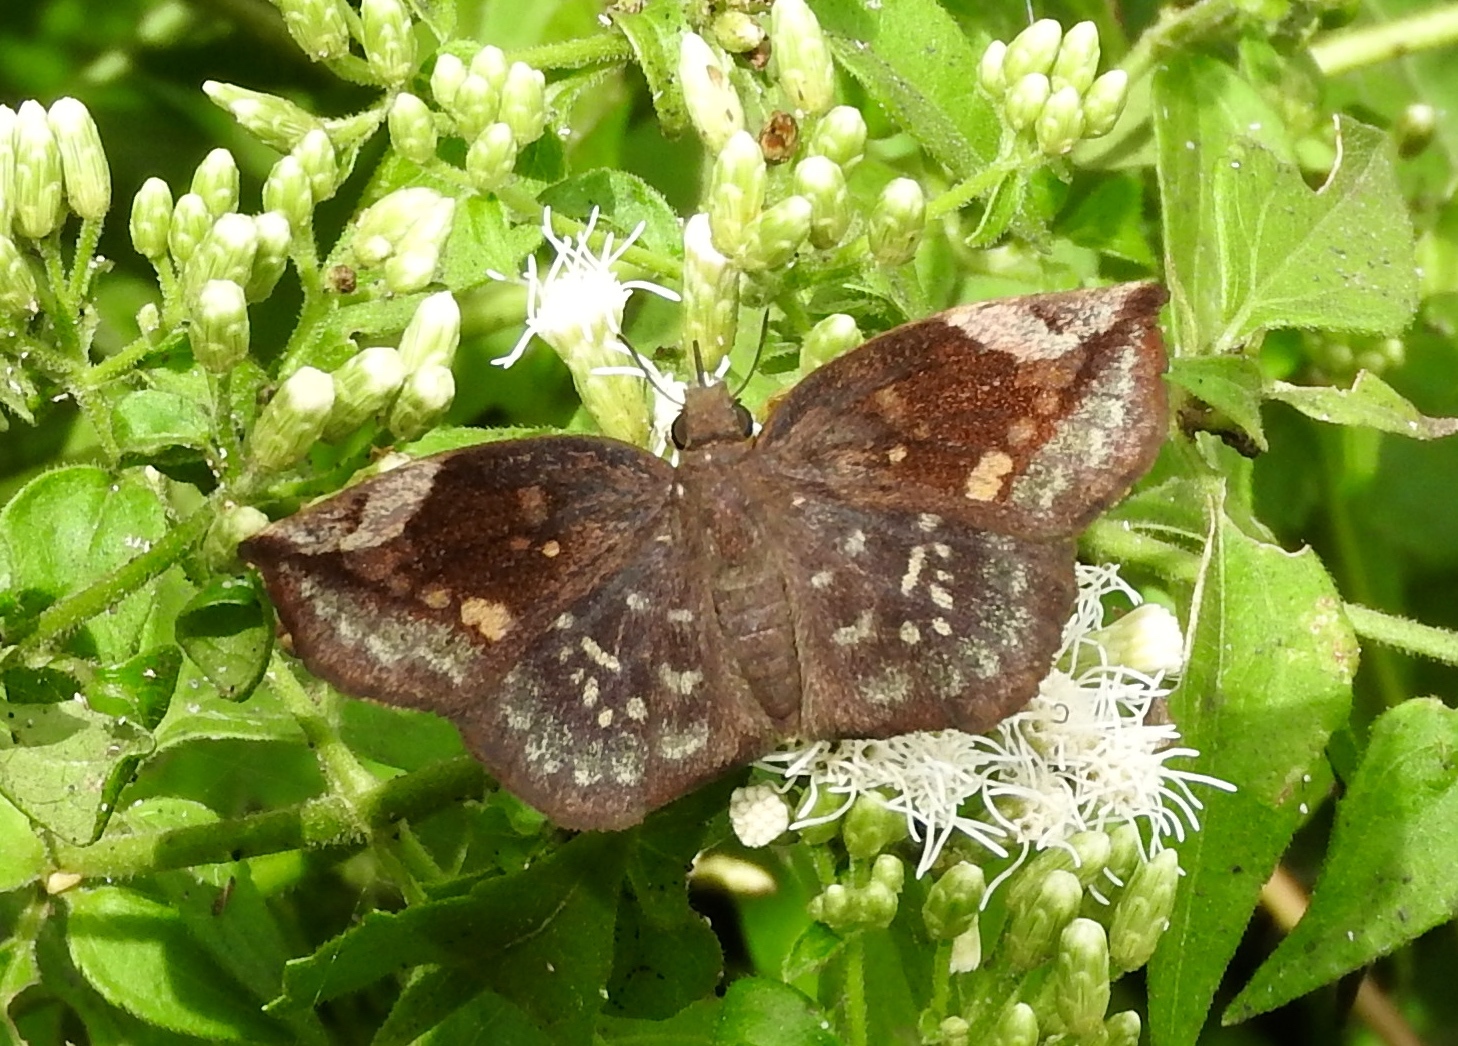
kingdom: Animalia
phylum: Arthropoda
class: Insecta
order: Lepidoptera
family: Hesperiidae
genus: Achlyodes
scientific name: Achlyodes thraso
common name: Sickle-winged skipper
